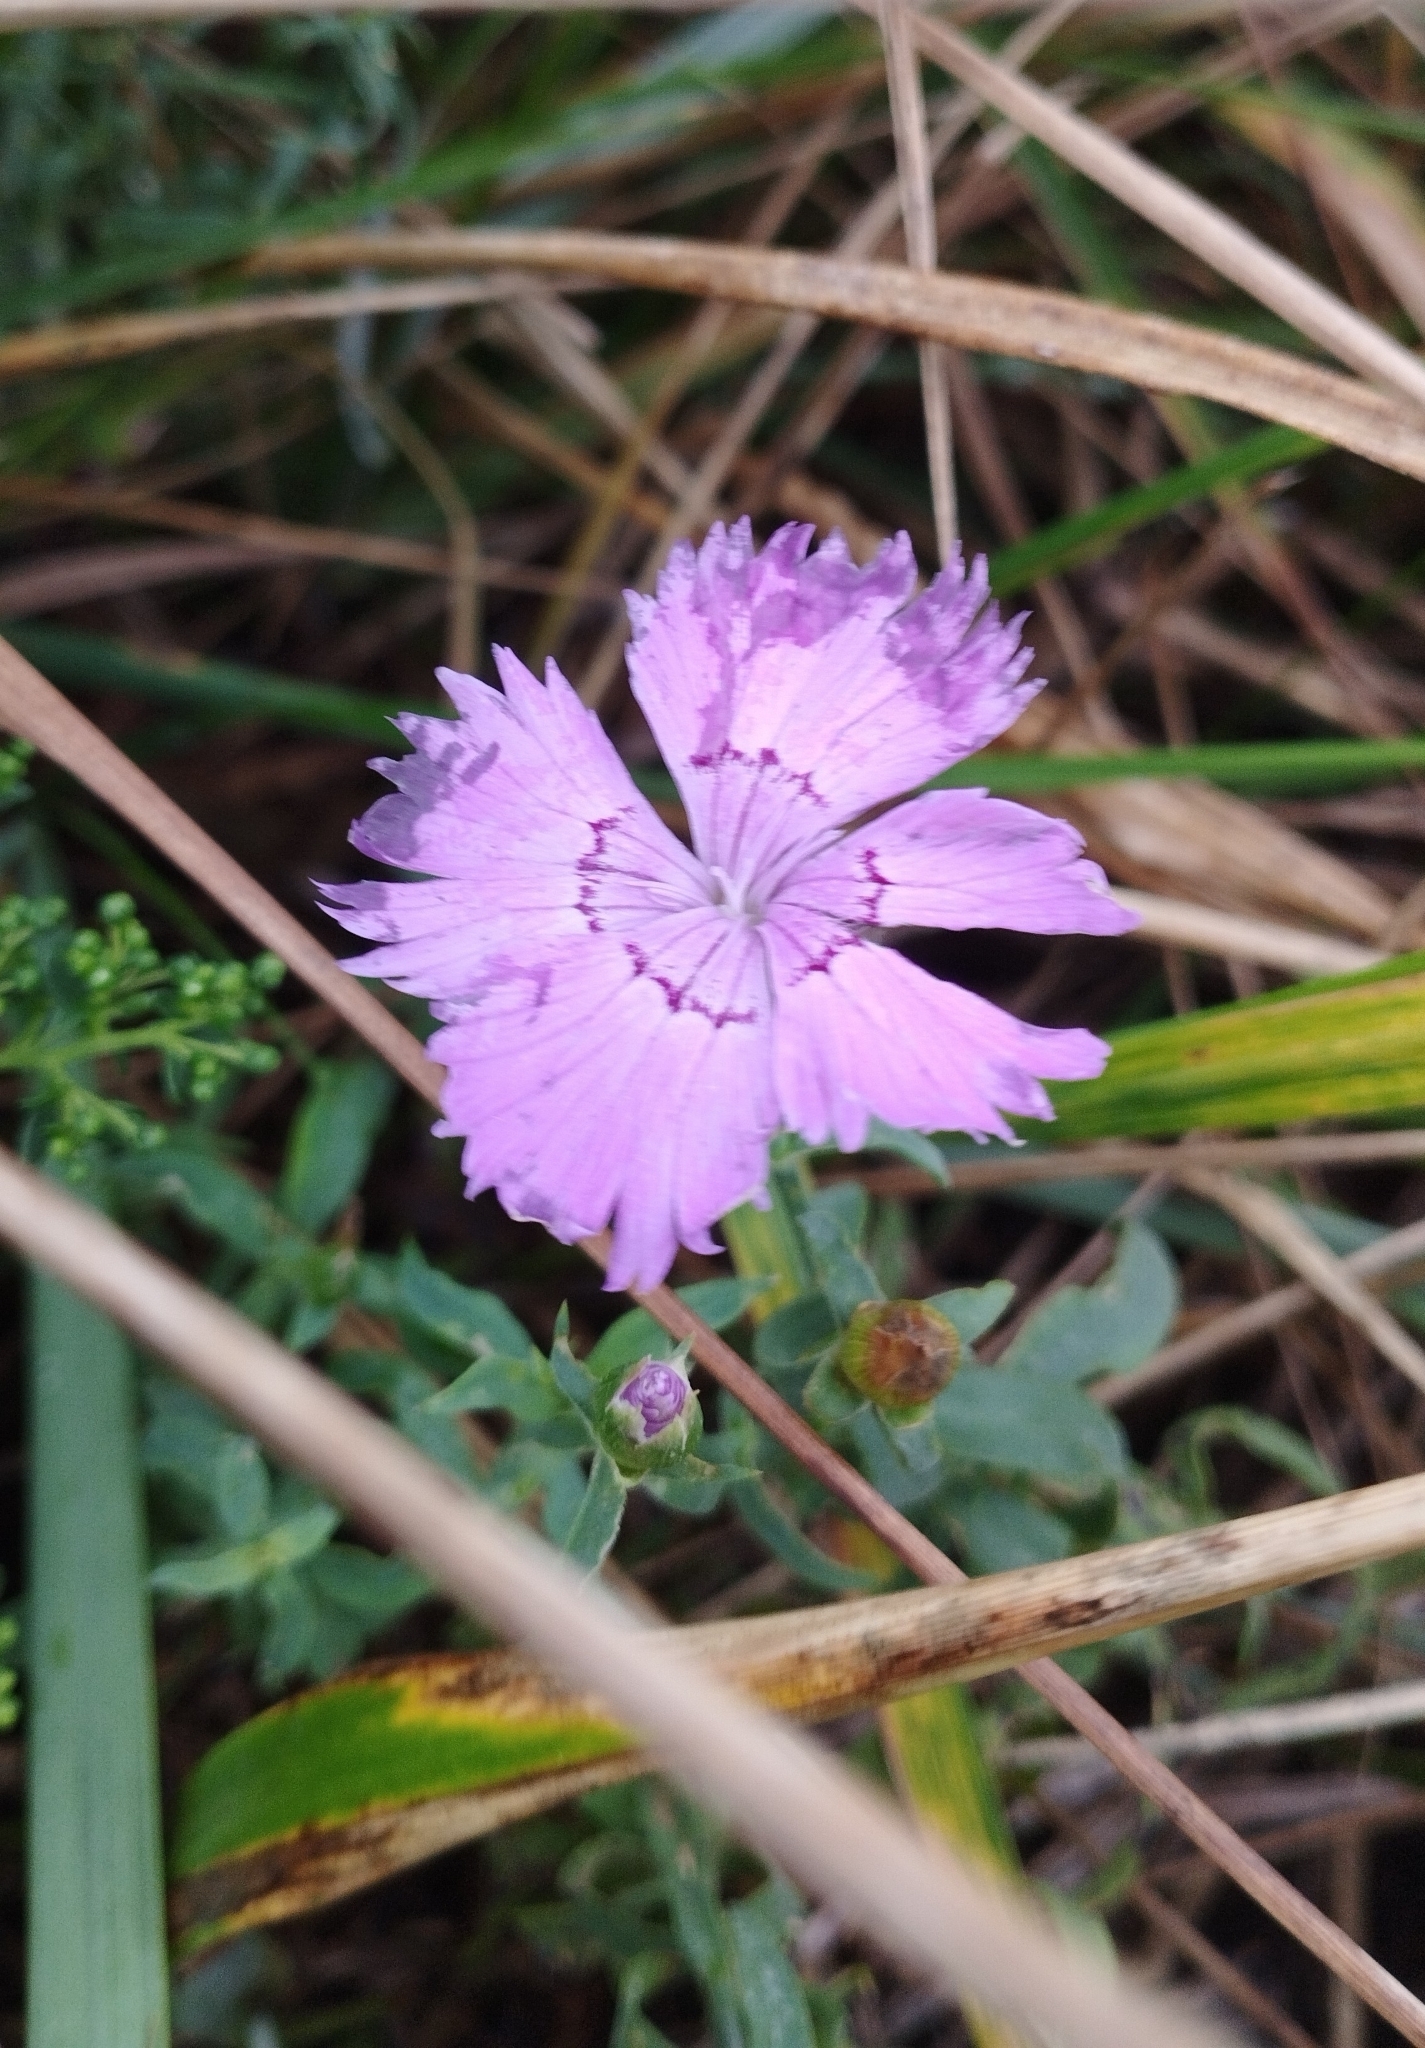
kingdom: Plantae
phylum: Tracheophyta
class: Magnoliopsida
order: Caryophyllales
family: Caryophyllaceae
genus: Dianthus
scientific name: Dianthus chinensis
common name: Rainbow pink
